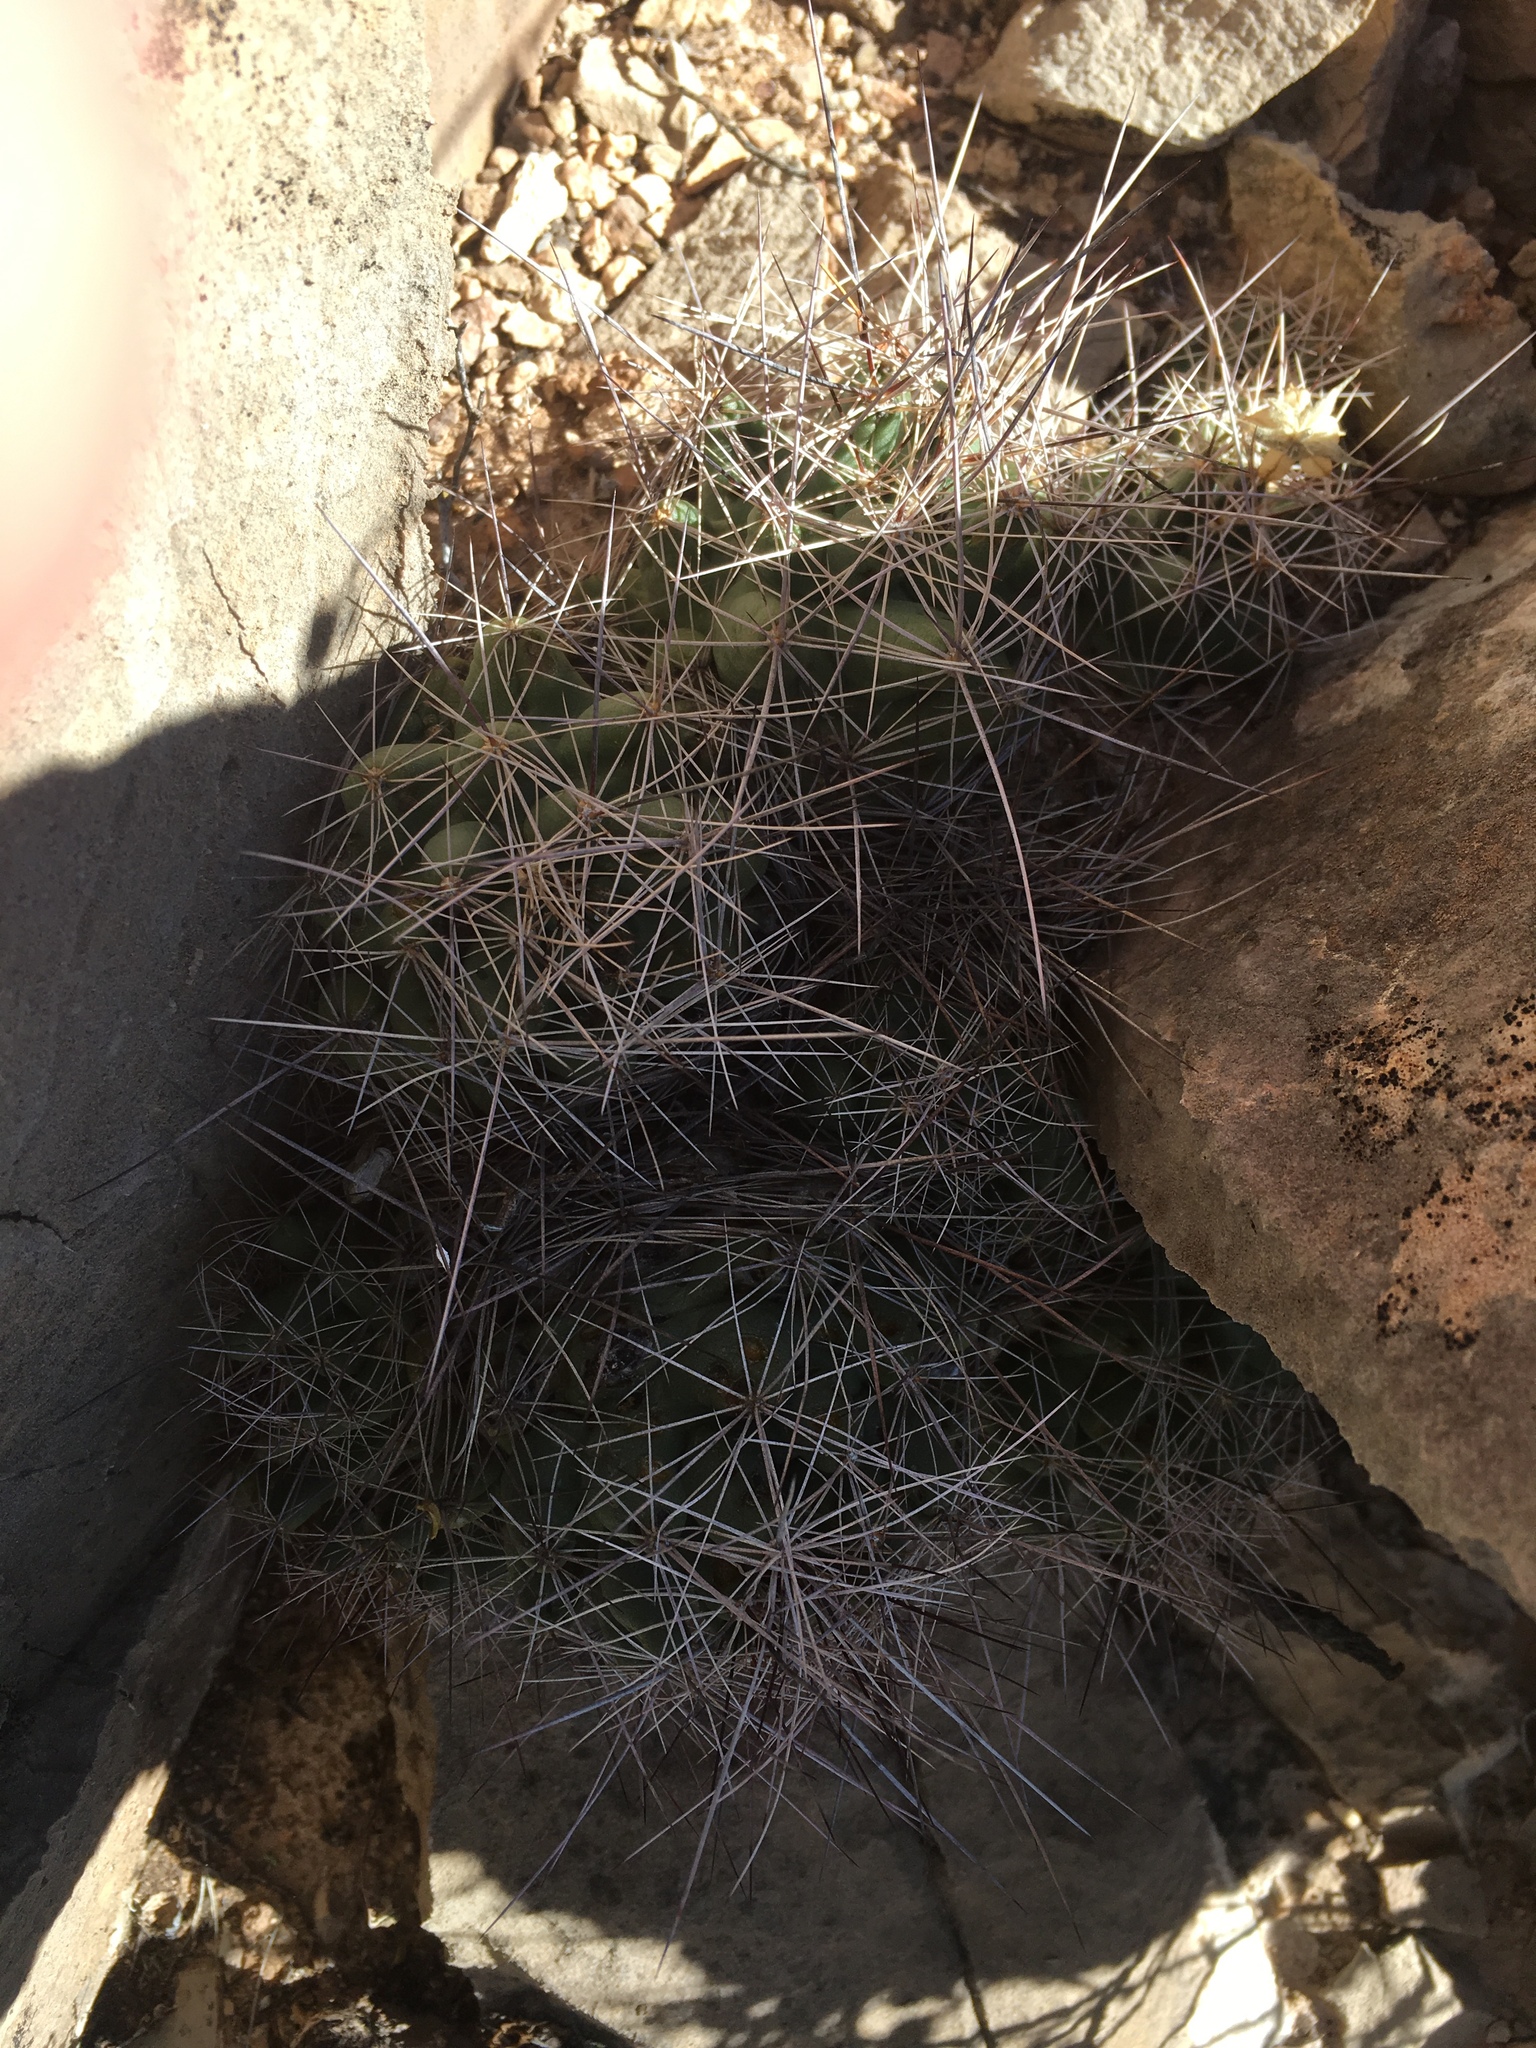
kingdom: Plantae
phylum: Tracheophyta
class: Magnoliopsida
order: Caryophyllales
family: Cactaceae
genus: Coryphantha
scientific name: Coryphantha macromeris
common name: Nipple beehive cactus
